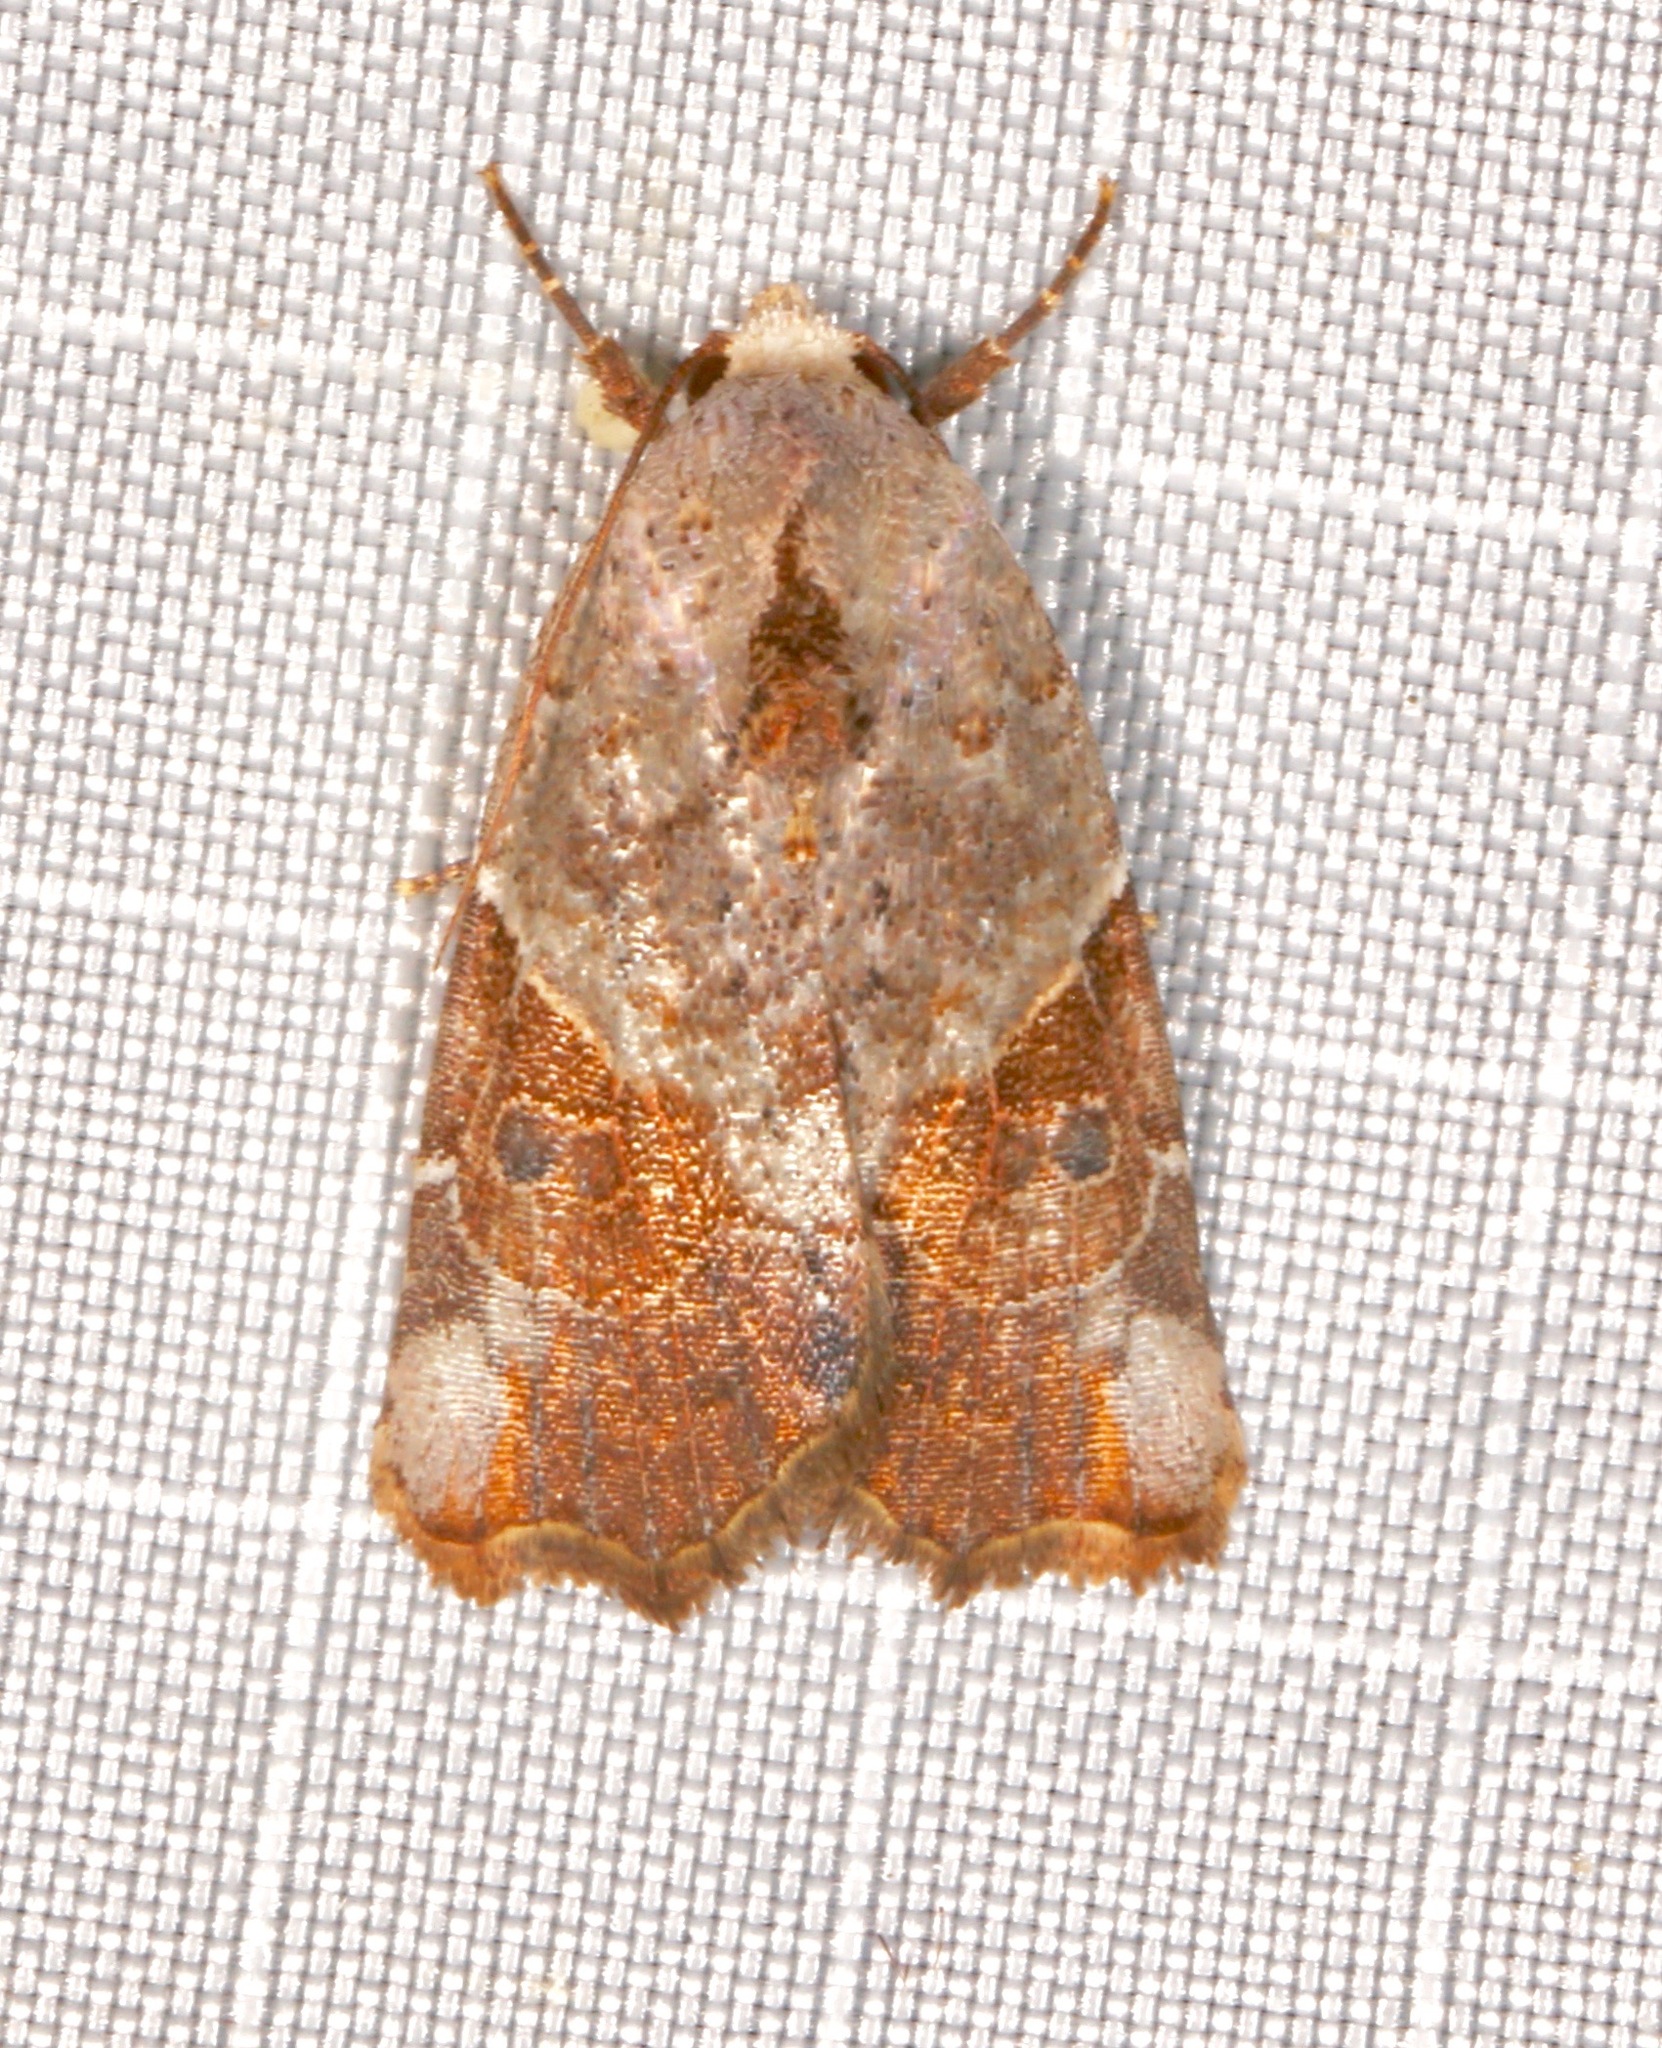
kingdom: Animalia
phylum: Arthropoda
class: Insecta
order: Lepidoptera
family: Noctuidae
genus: Gonodes
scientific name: Gonodes liquida
